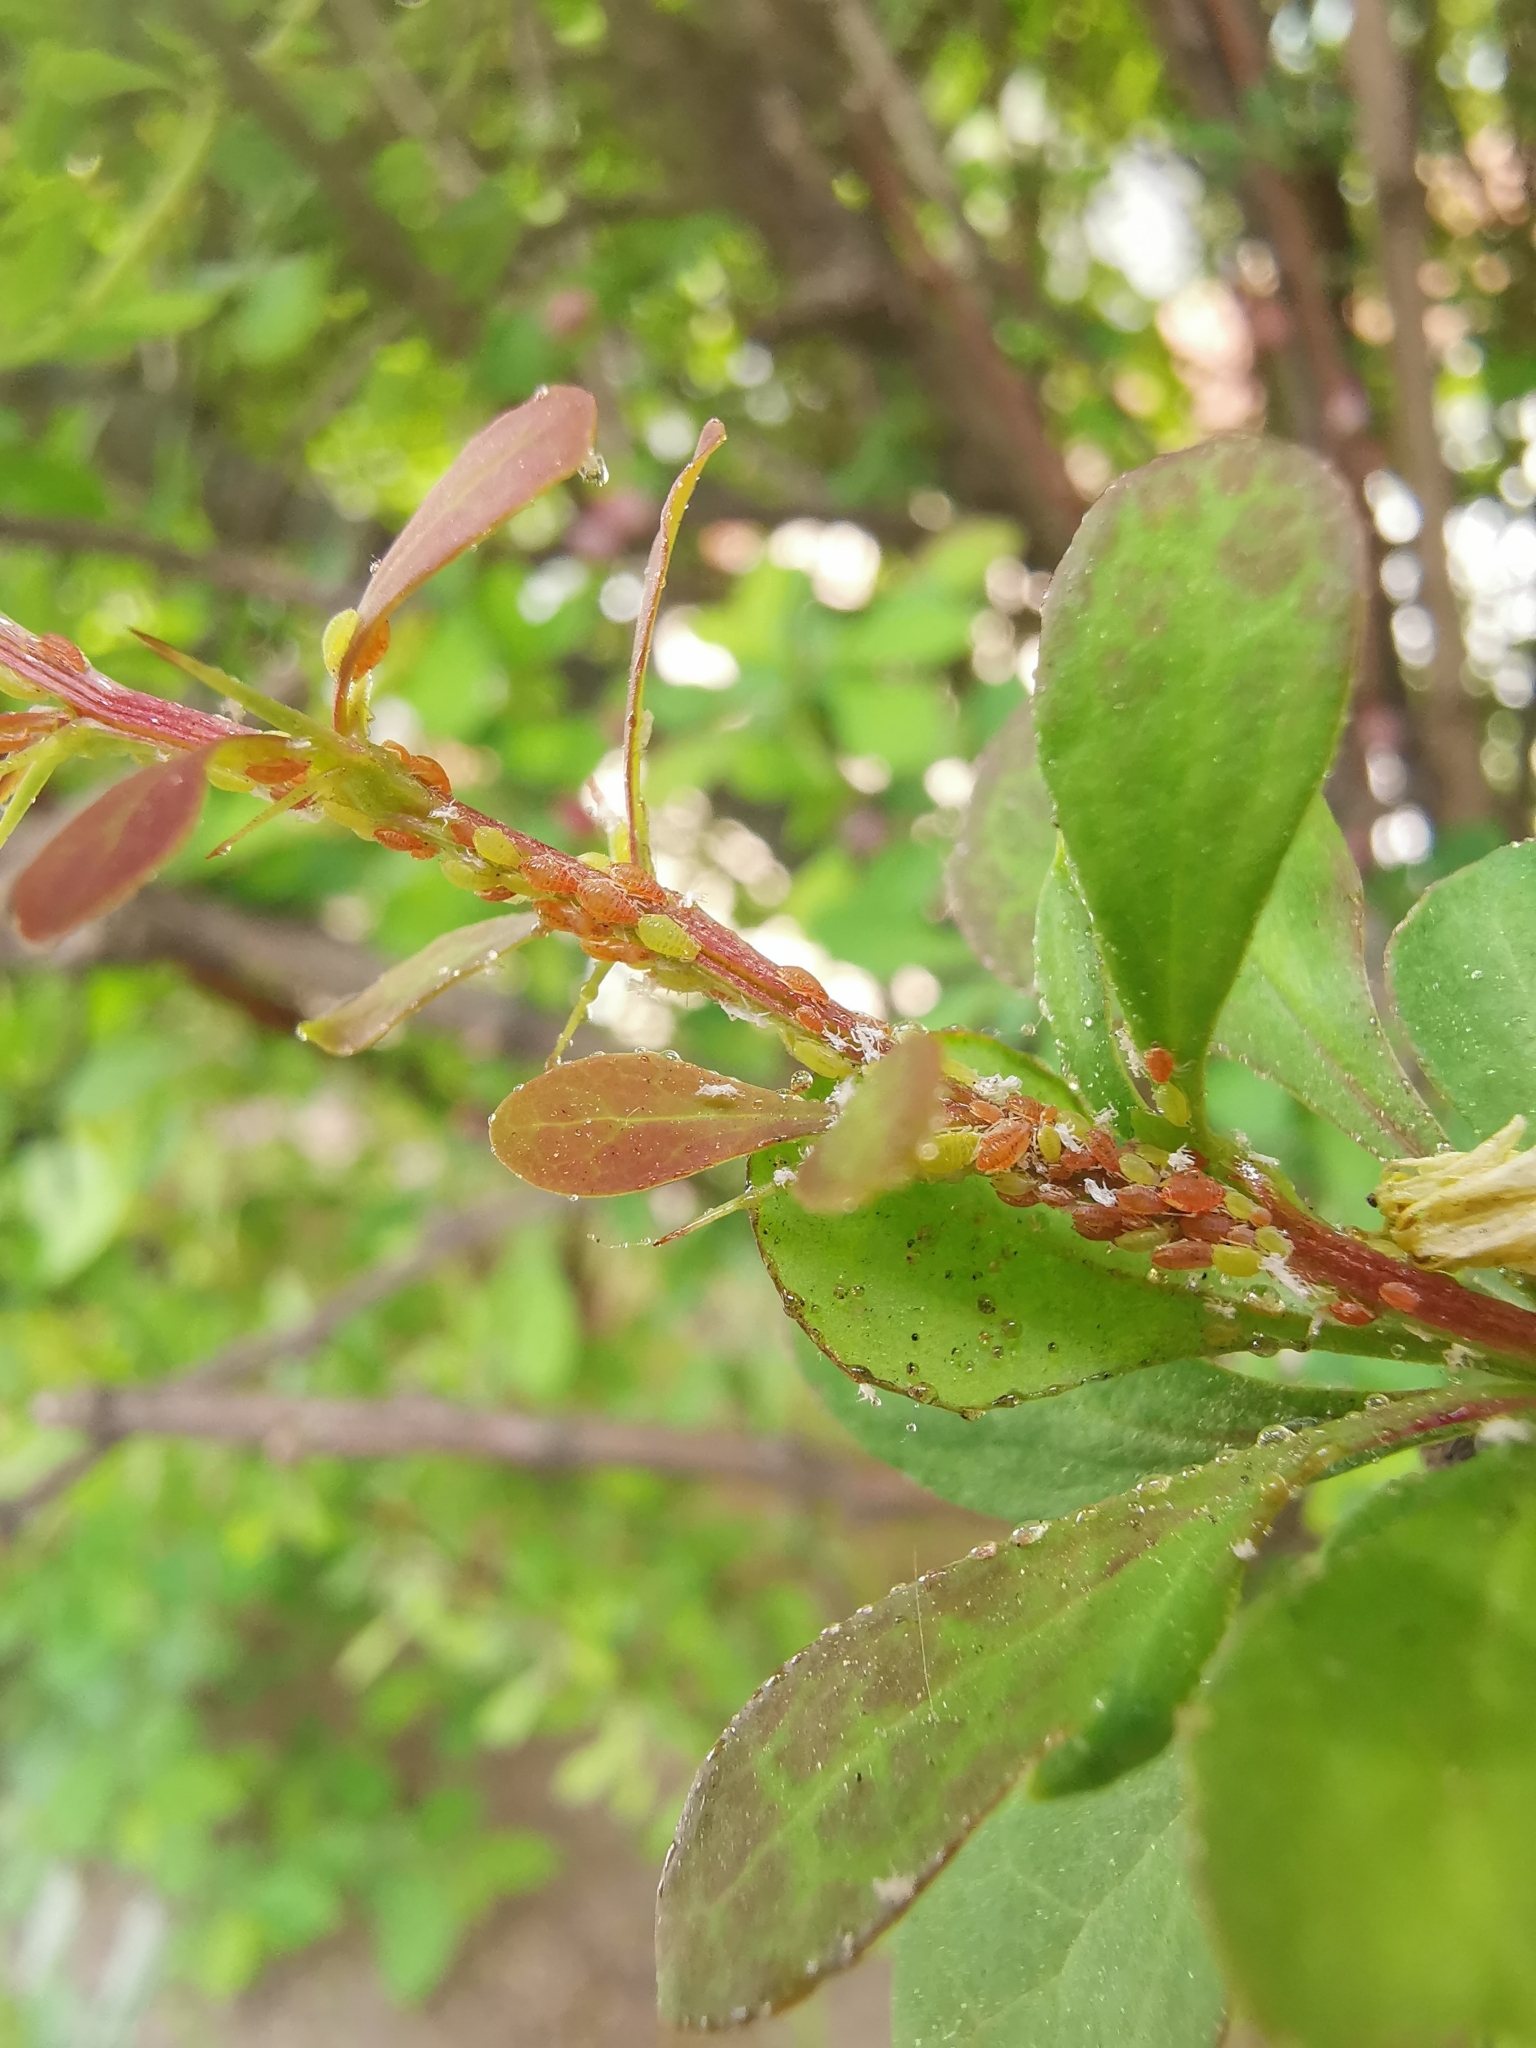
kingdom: Animalia
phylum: Arthropoda
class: Insecta
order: Hemiptera
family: Aphididae
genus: Liosomaphis
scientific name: Liosomaphis berberidis
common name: Barberry aphid
